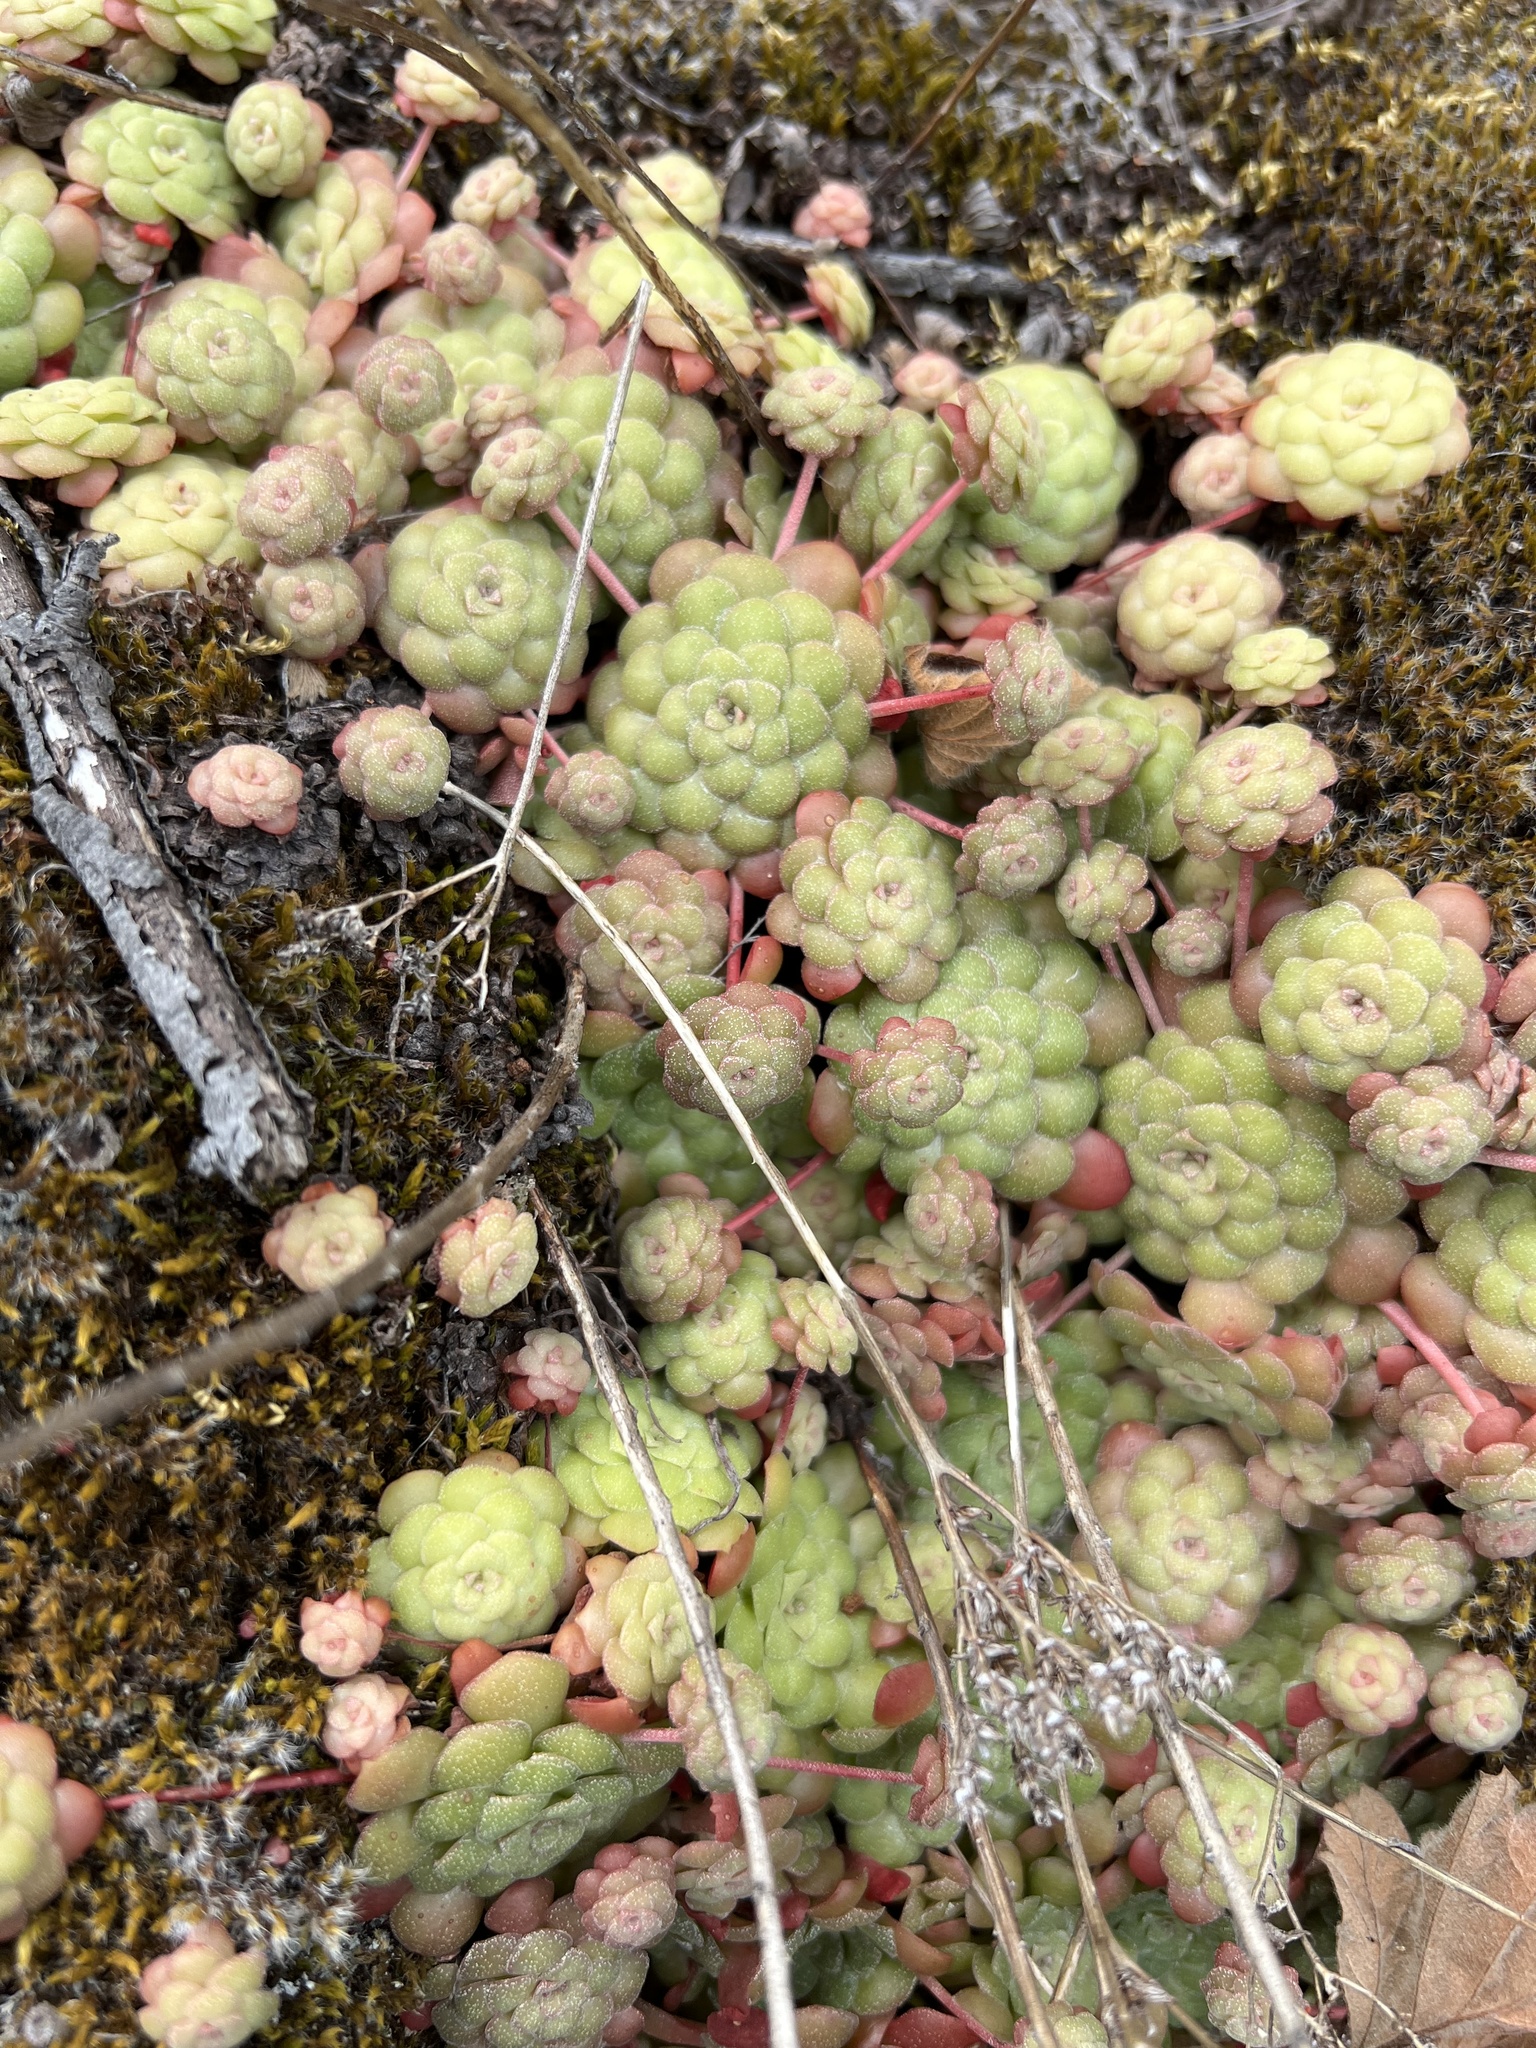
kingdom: Plantae
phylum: Tracheophyta
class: Magnoliopsida
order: Saxifragales
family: Crassulaceae
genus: Sedum
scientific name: Sedum spathulifolium
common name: Colorado stonecrop
